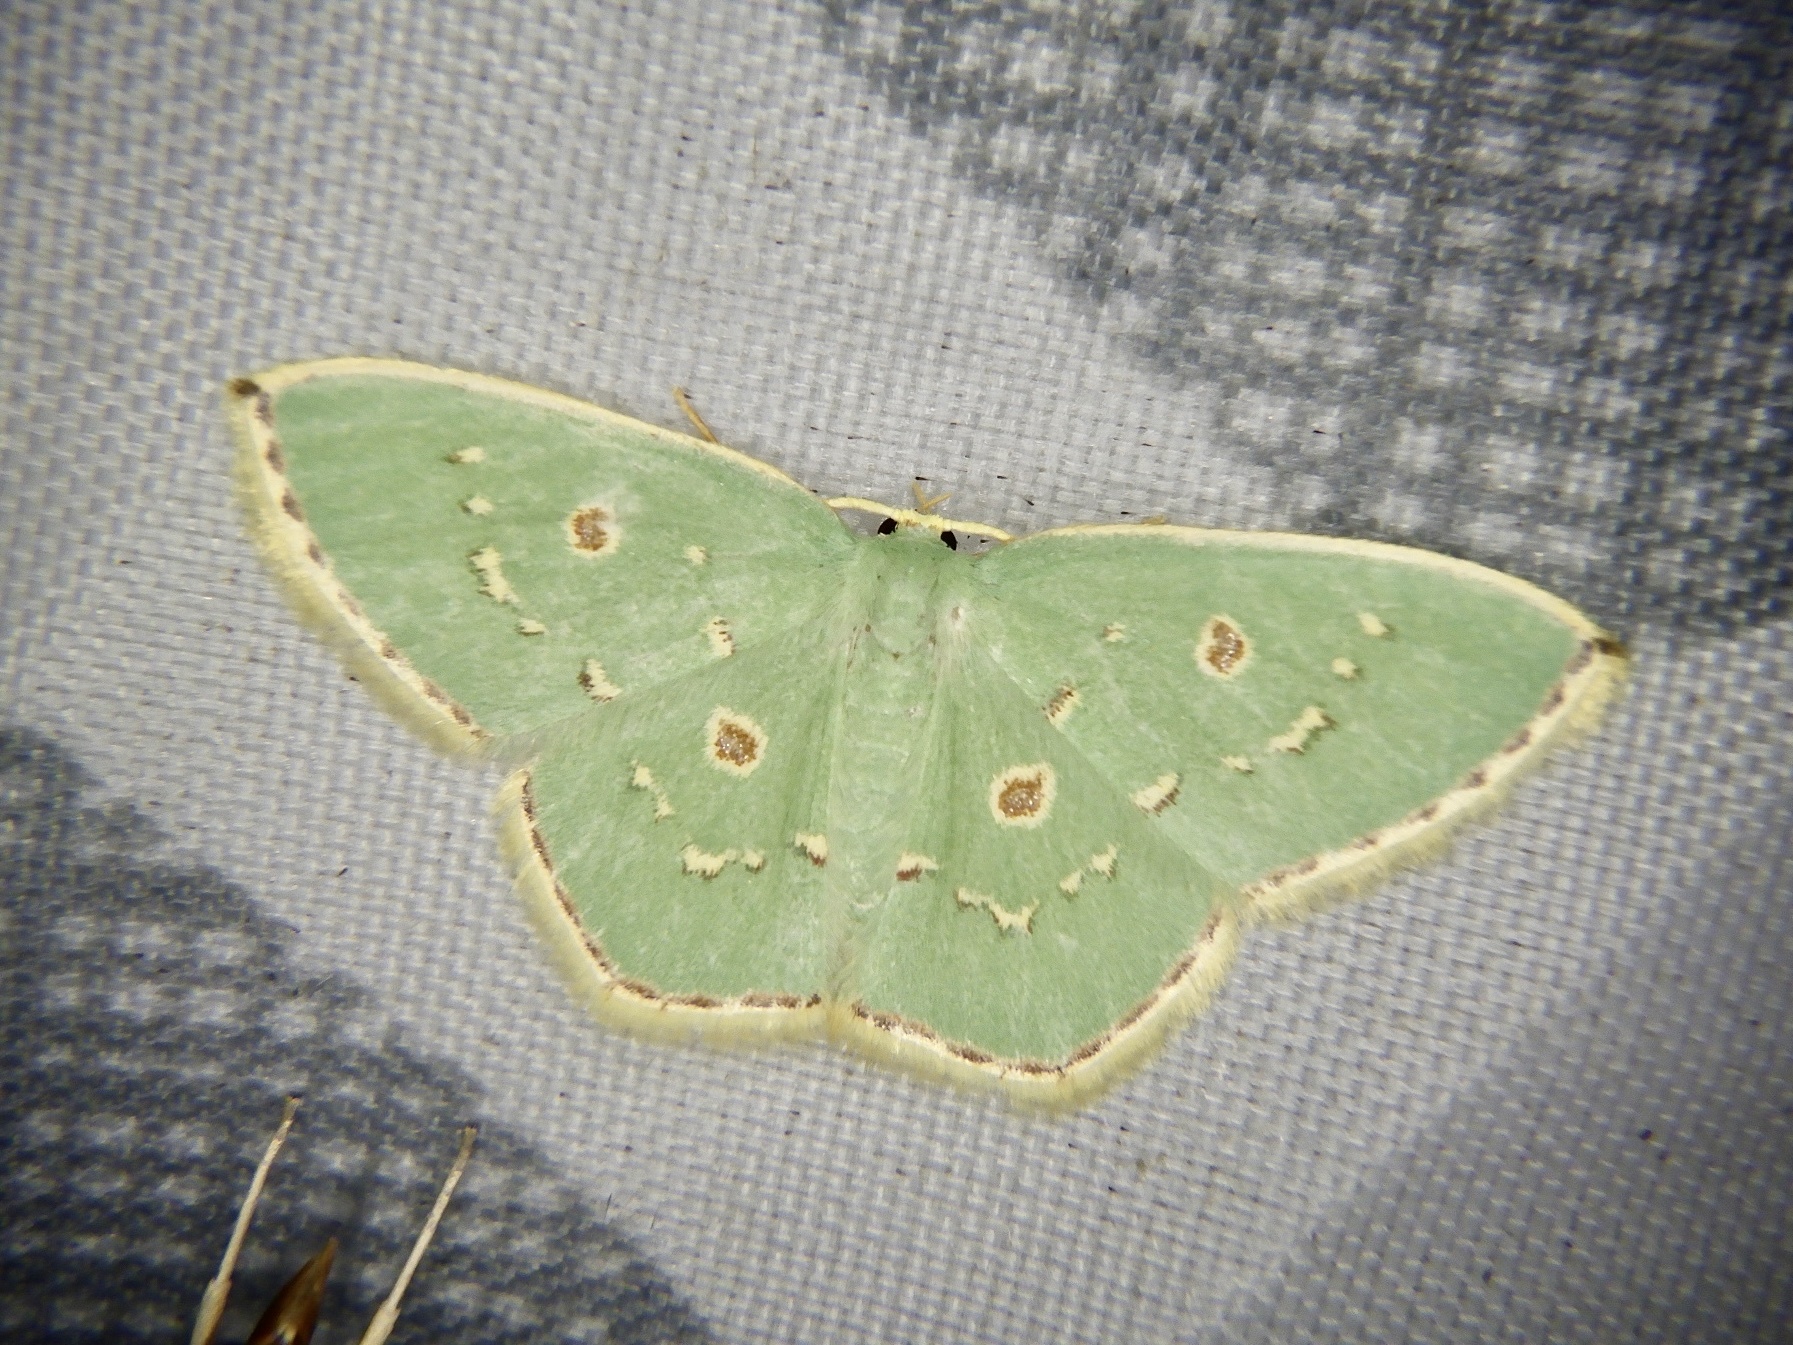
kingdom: Animalia
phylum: Arthropoda
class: Insecta
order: Lepidoptera
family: Geometridae
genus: Comostola
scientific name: Comostola subtiliaria
